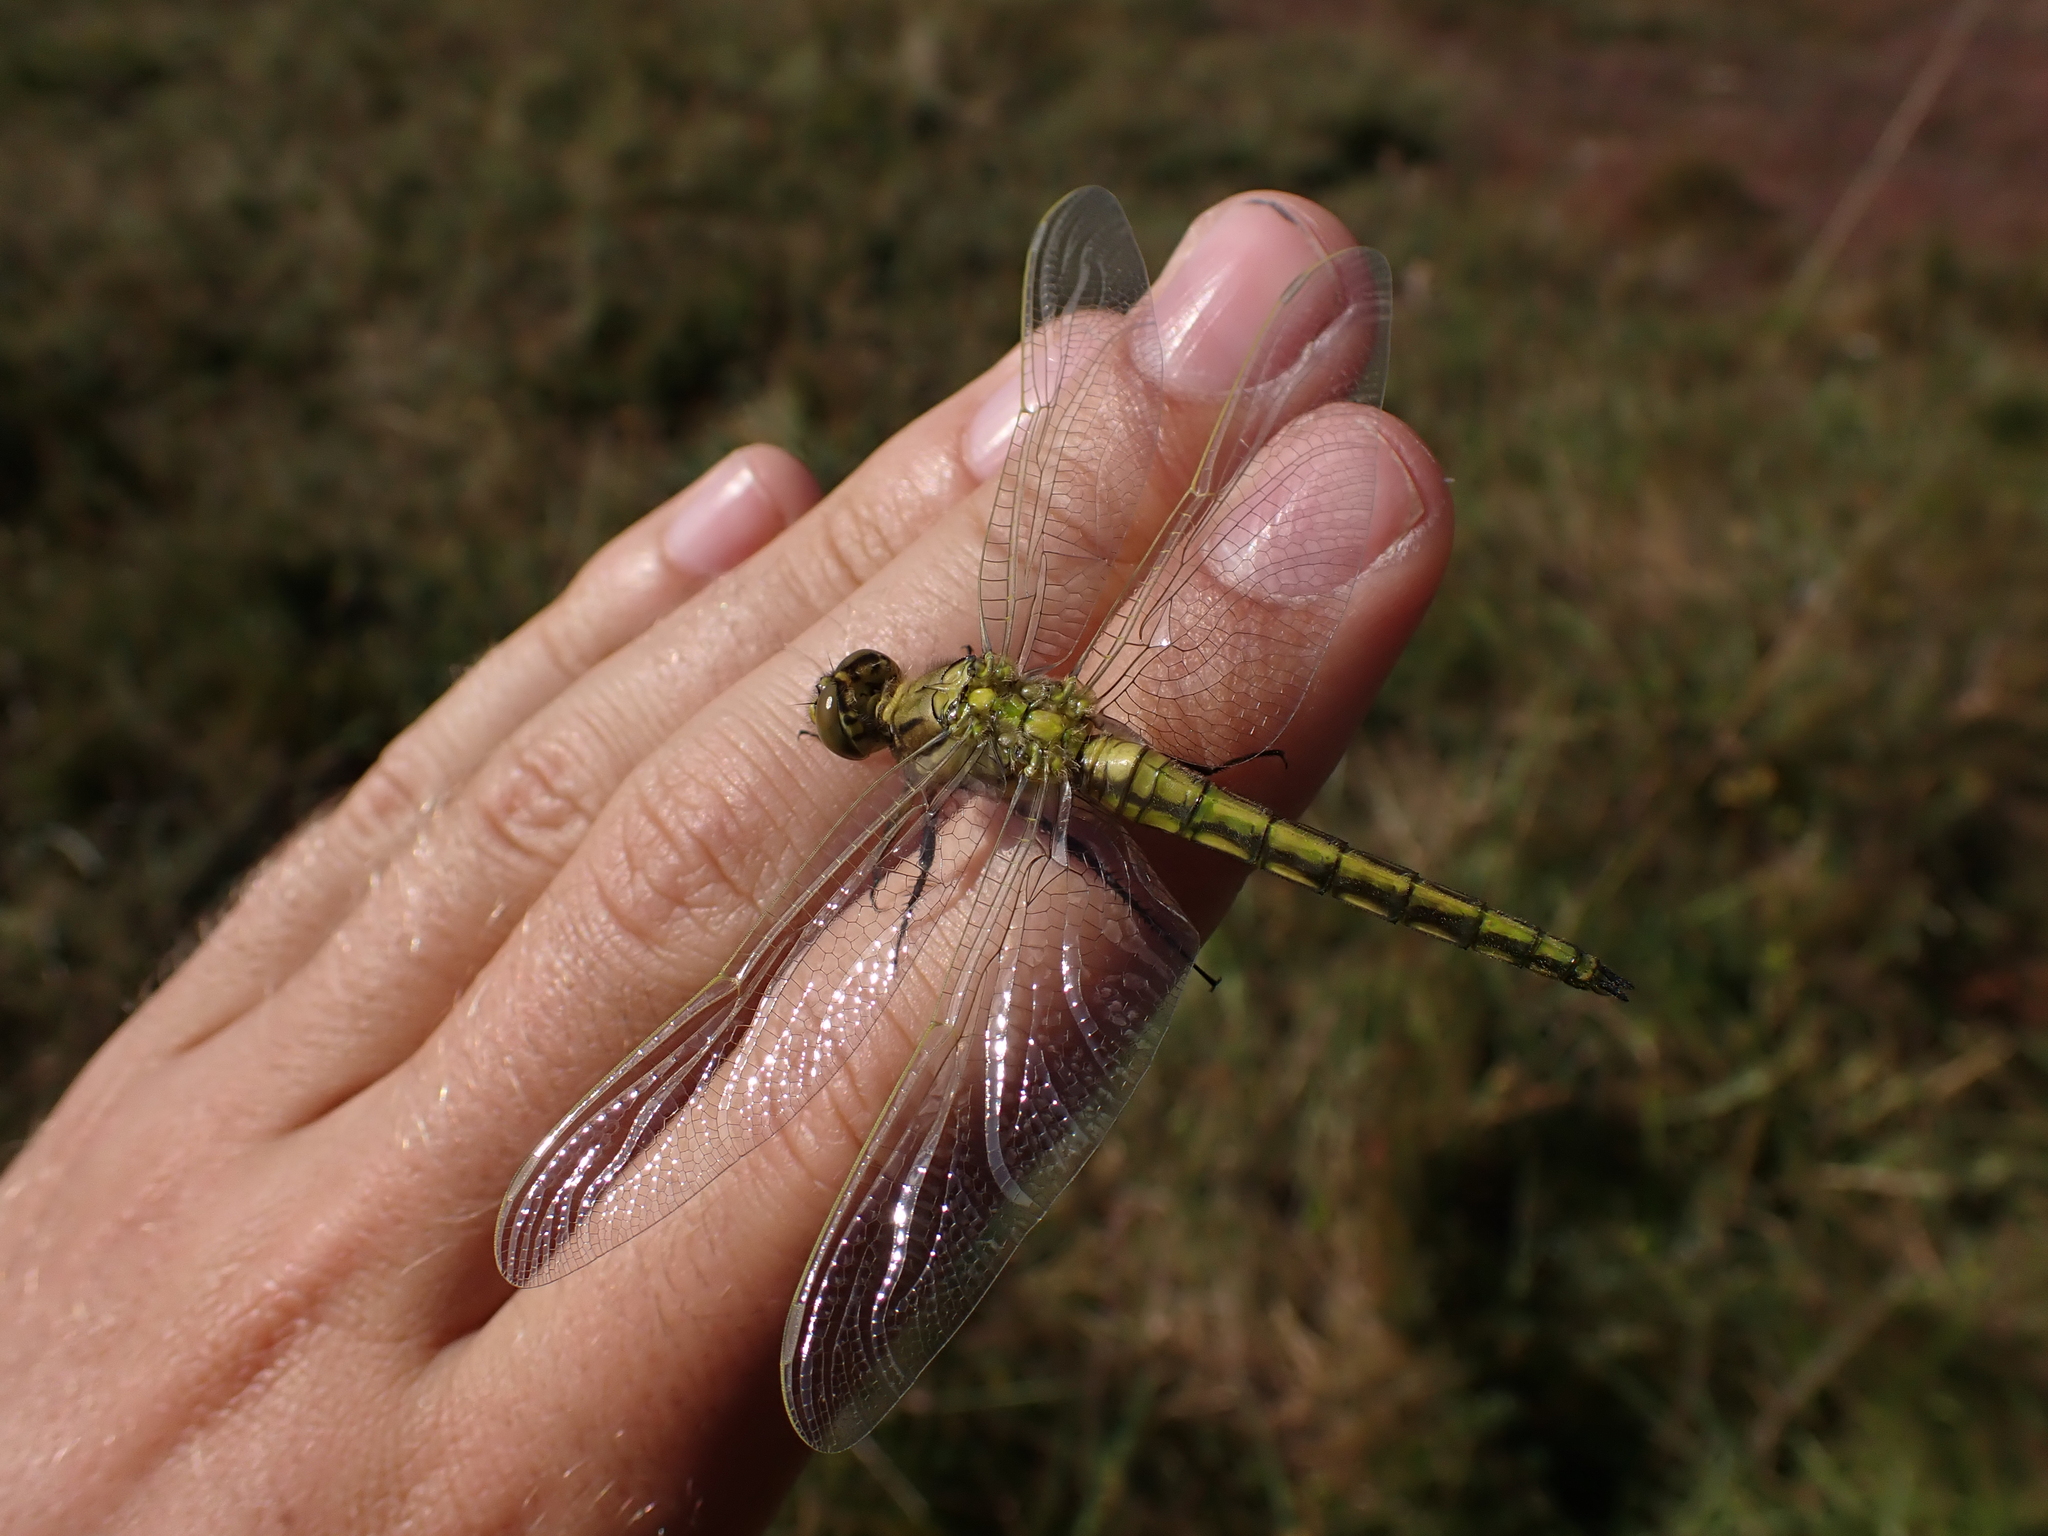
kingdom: Animalia
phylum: Arthropoda
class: Insecta
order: Odonata
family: Libellulidae
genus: Orthetrum
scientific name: Orthetrum cancellatum
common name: Black-tailed skimmer
